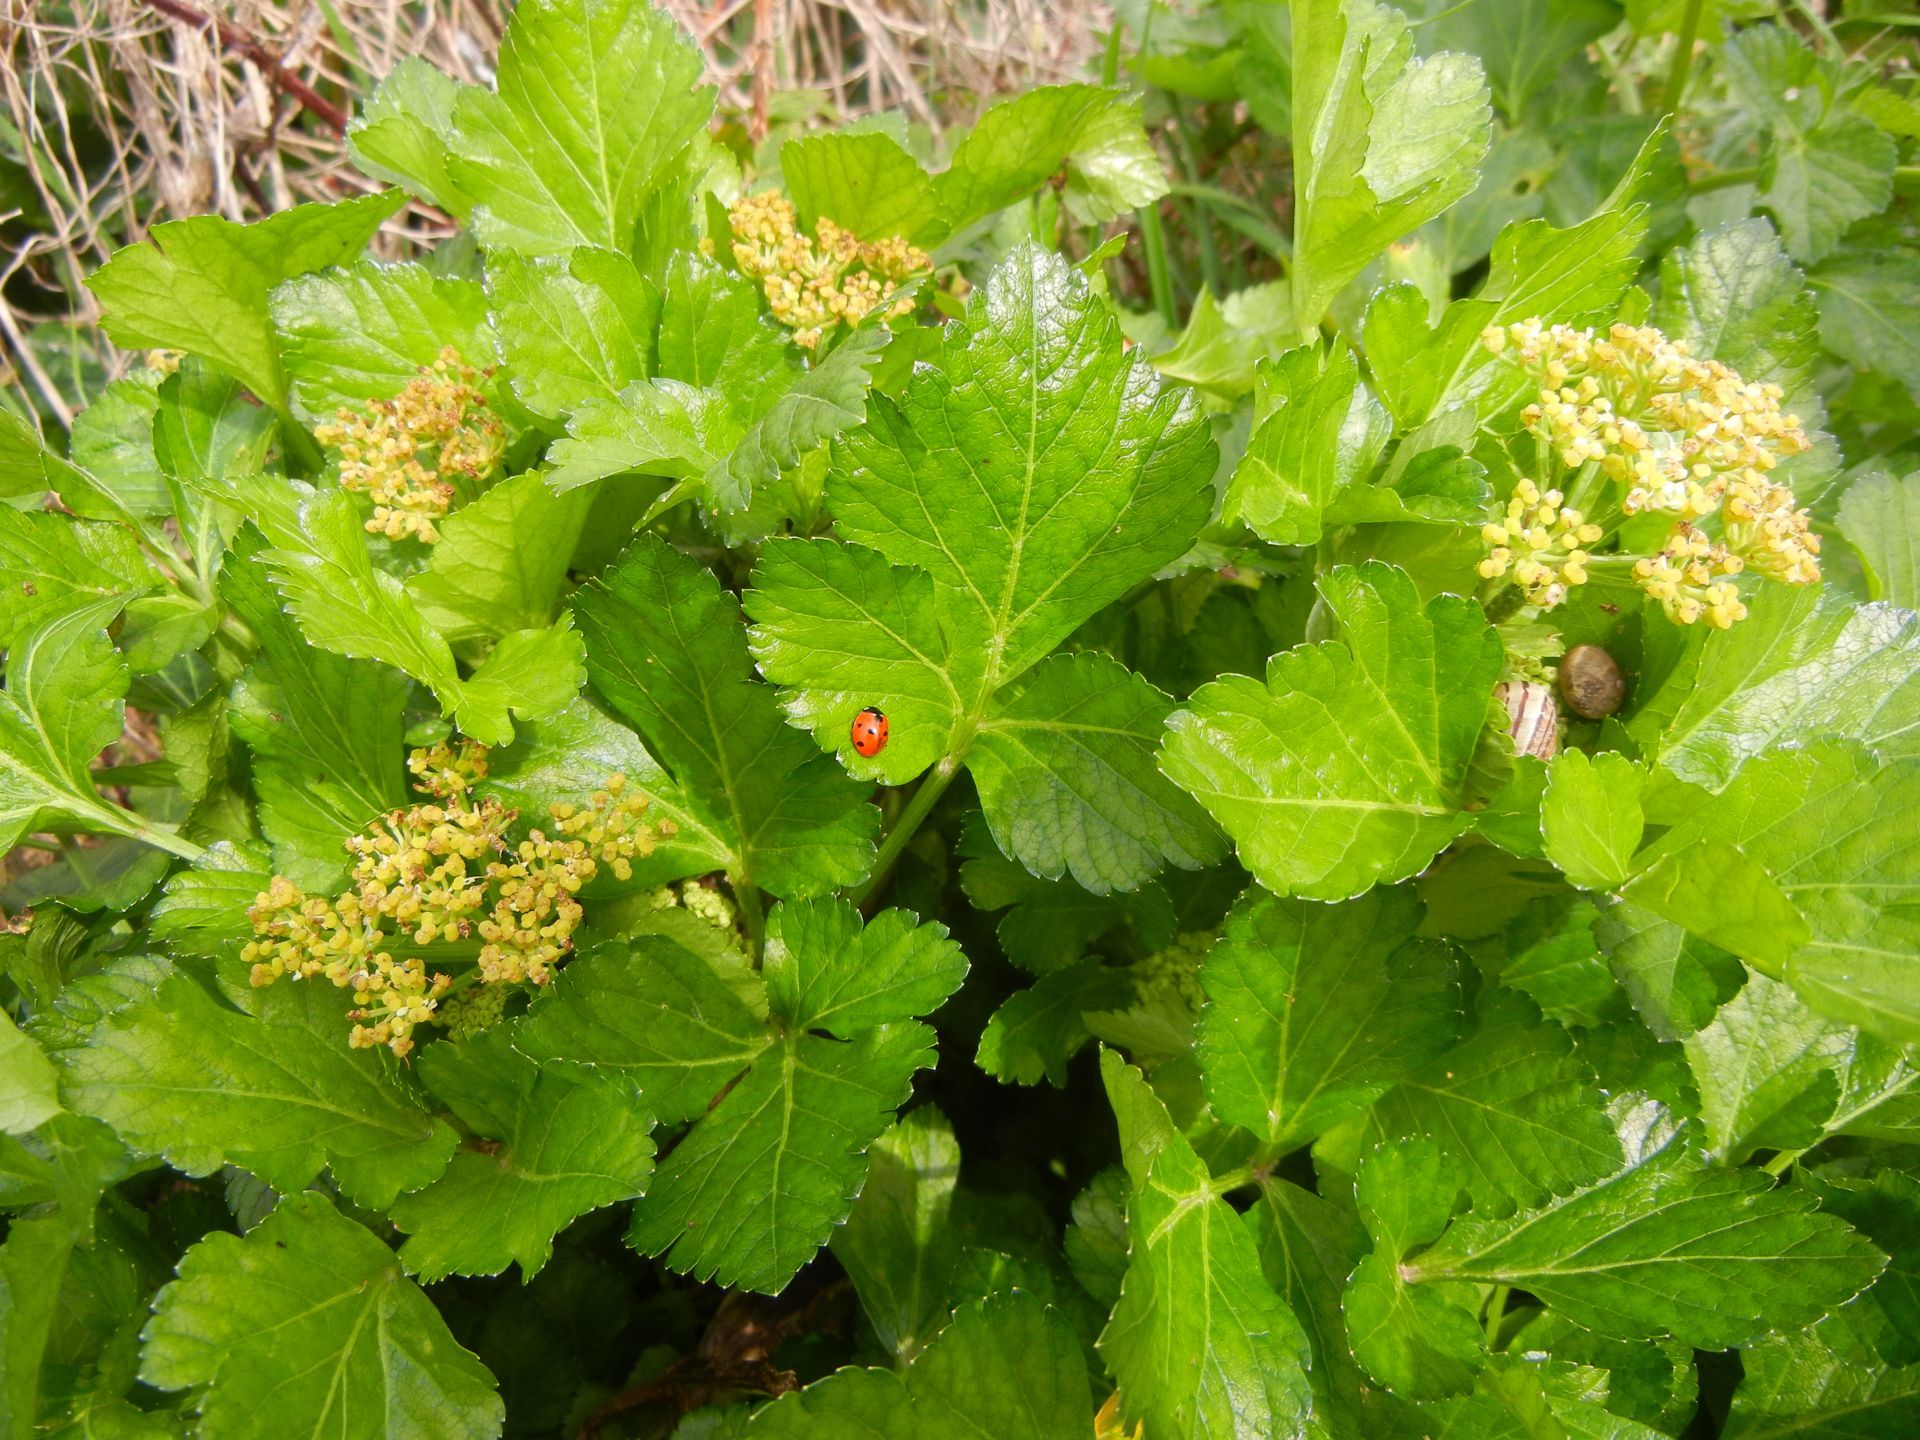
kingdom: Plantae
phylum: Tracheophyta
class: Magnoliopsida
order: Apiales
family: Apiaceae
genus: Smyrnium
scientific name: Smyrnium olusatrum
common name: Alexanders
